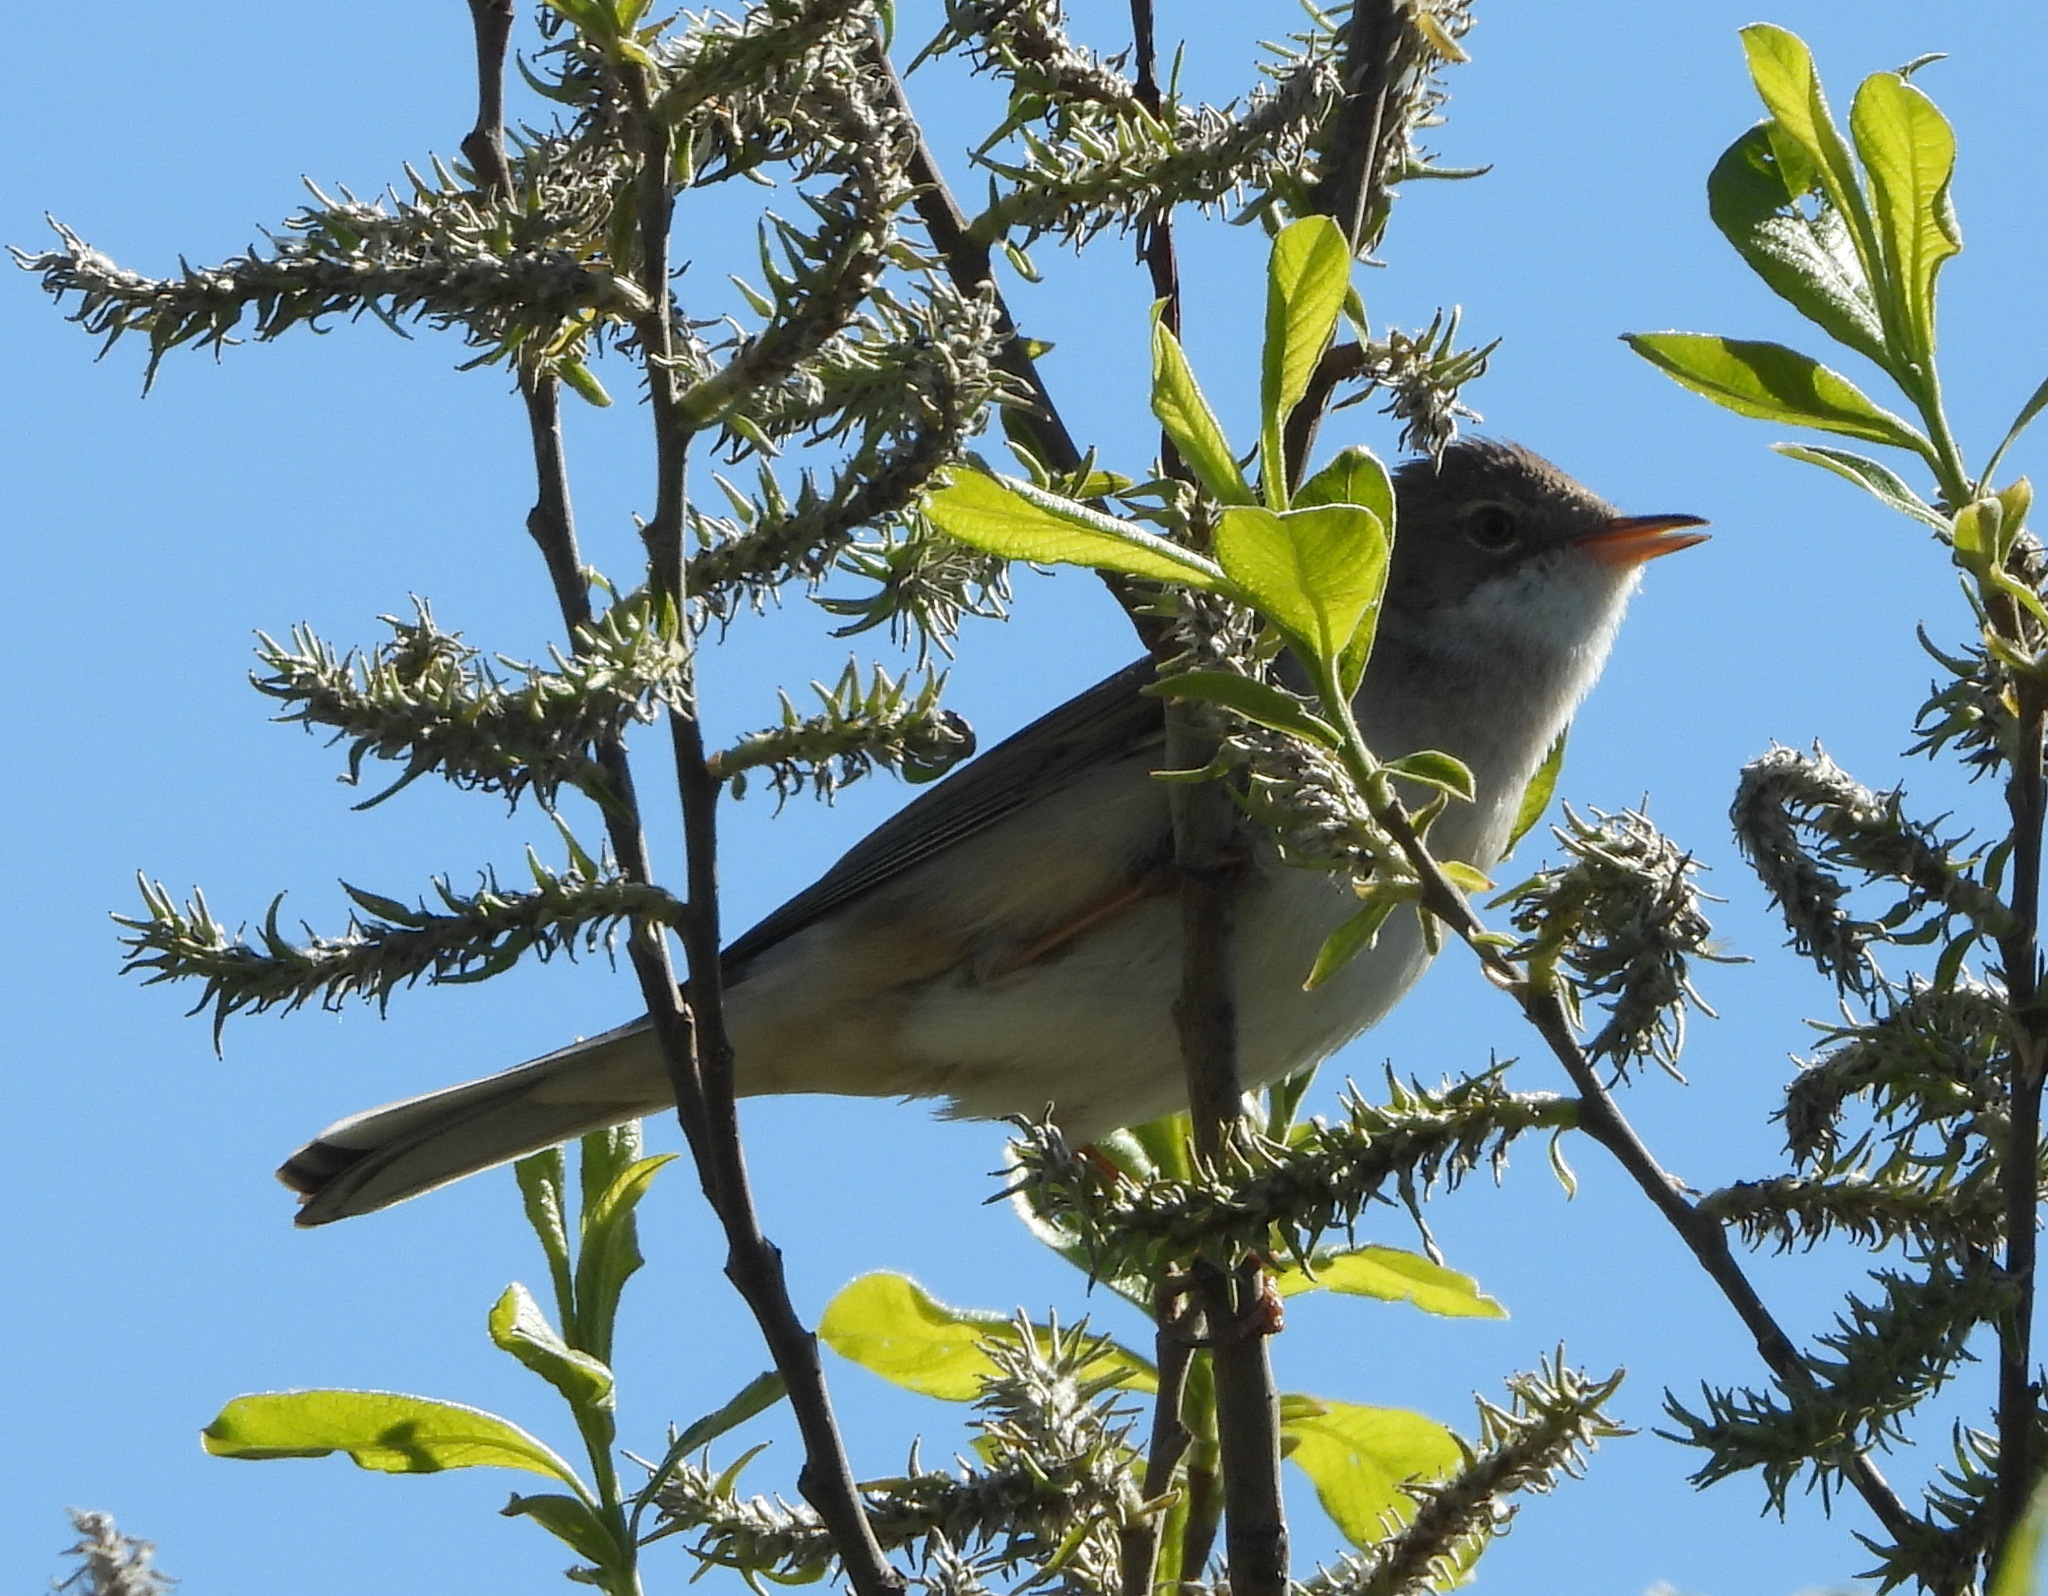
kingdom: Animalia
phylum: Chordata
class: Aves
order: Passeriformes
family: Sylviidae
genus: Sylvia
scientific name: Sylvia communis
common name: Common whitethroat
